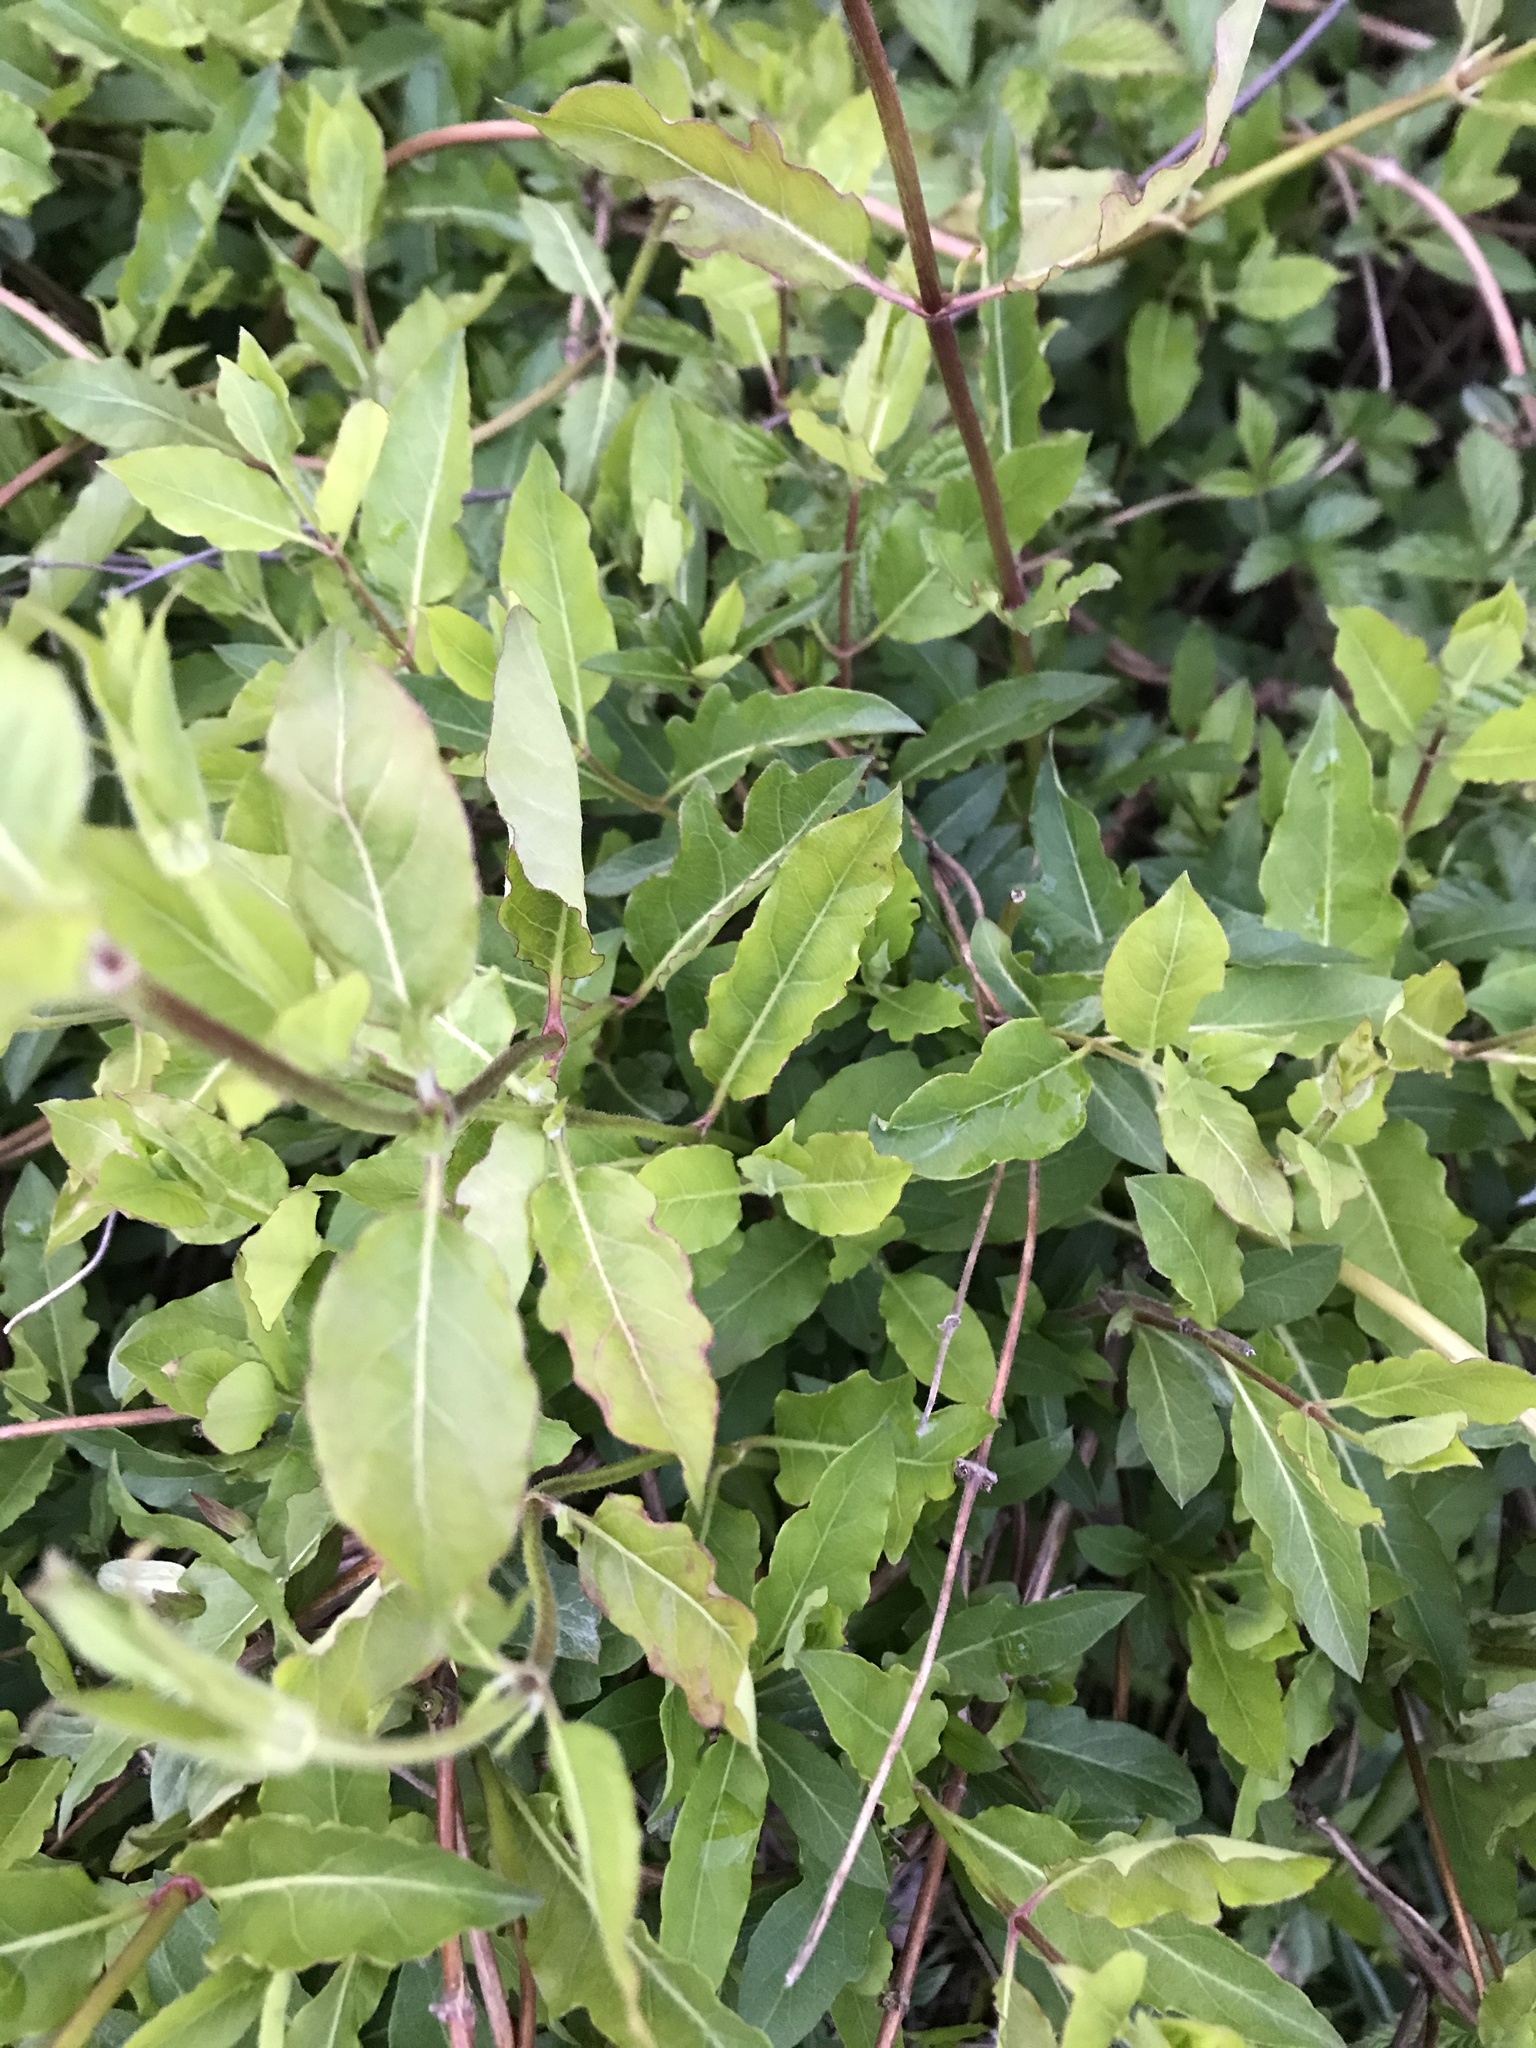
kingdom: Plantae
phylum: Tracheophyta
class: Magnoliopsida
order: Dipsacales
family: Caprifoliaceae
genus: Lonicera
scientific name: Lonicera japonica
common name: Japanese honeysuckle
